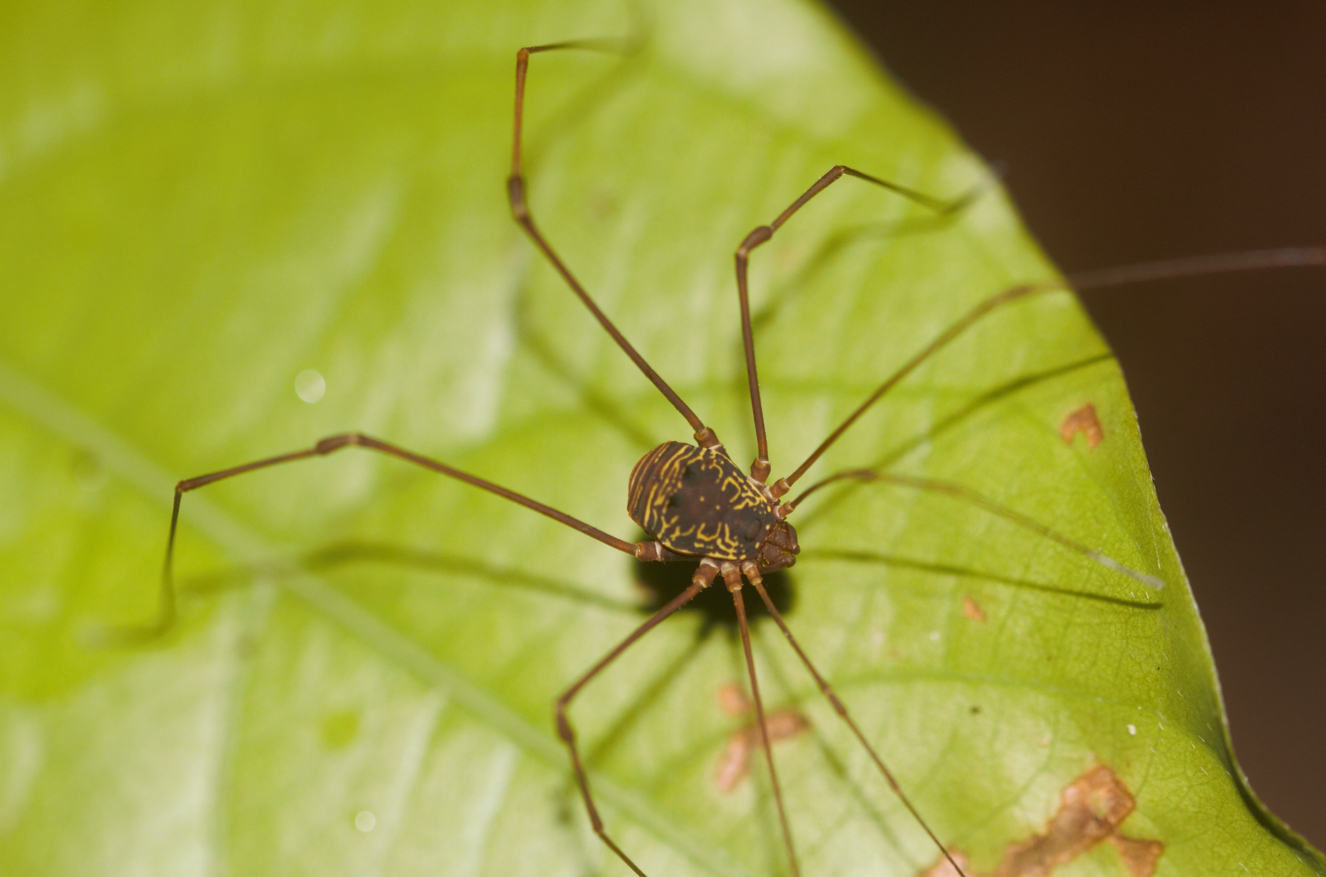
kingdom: Animalia
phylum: Arthropoda
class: Arachnida
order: Opiliones
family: Cosmetidae
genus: Paecilaema
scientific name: Paecilaema sigillatum
